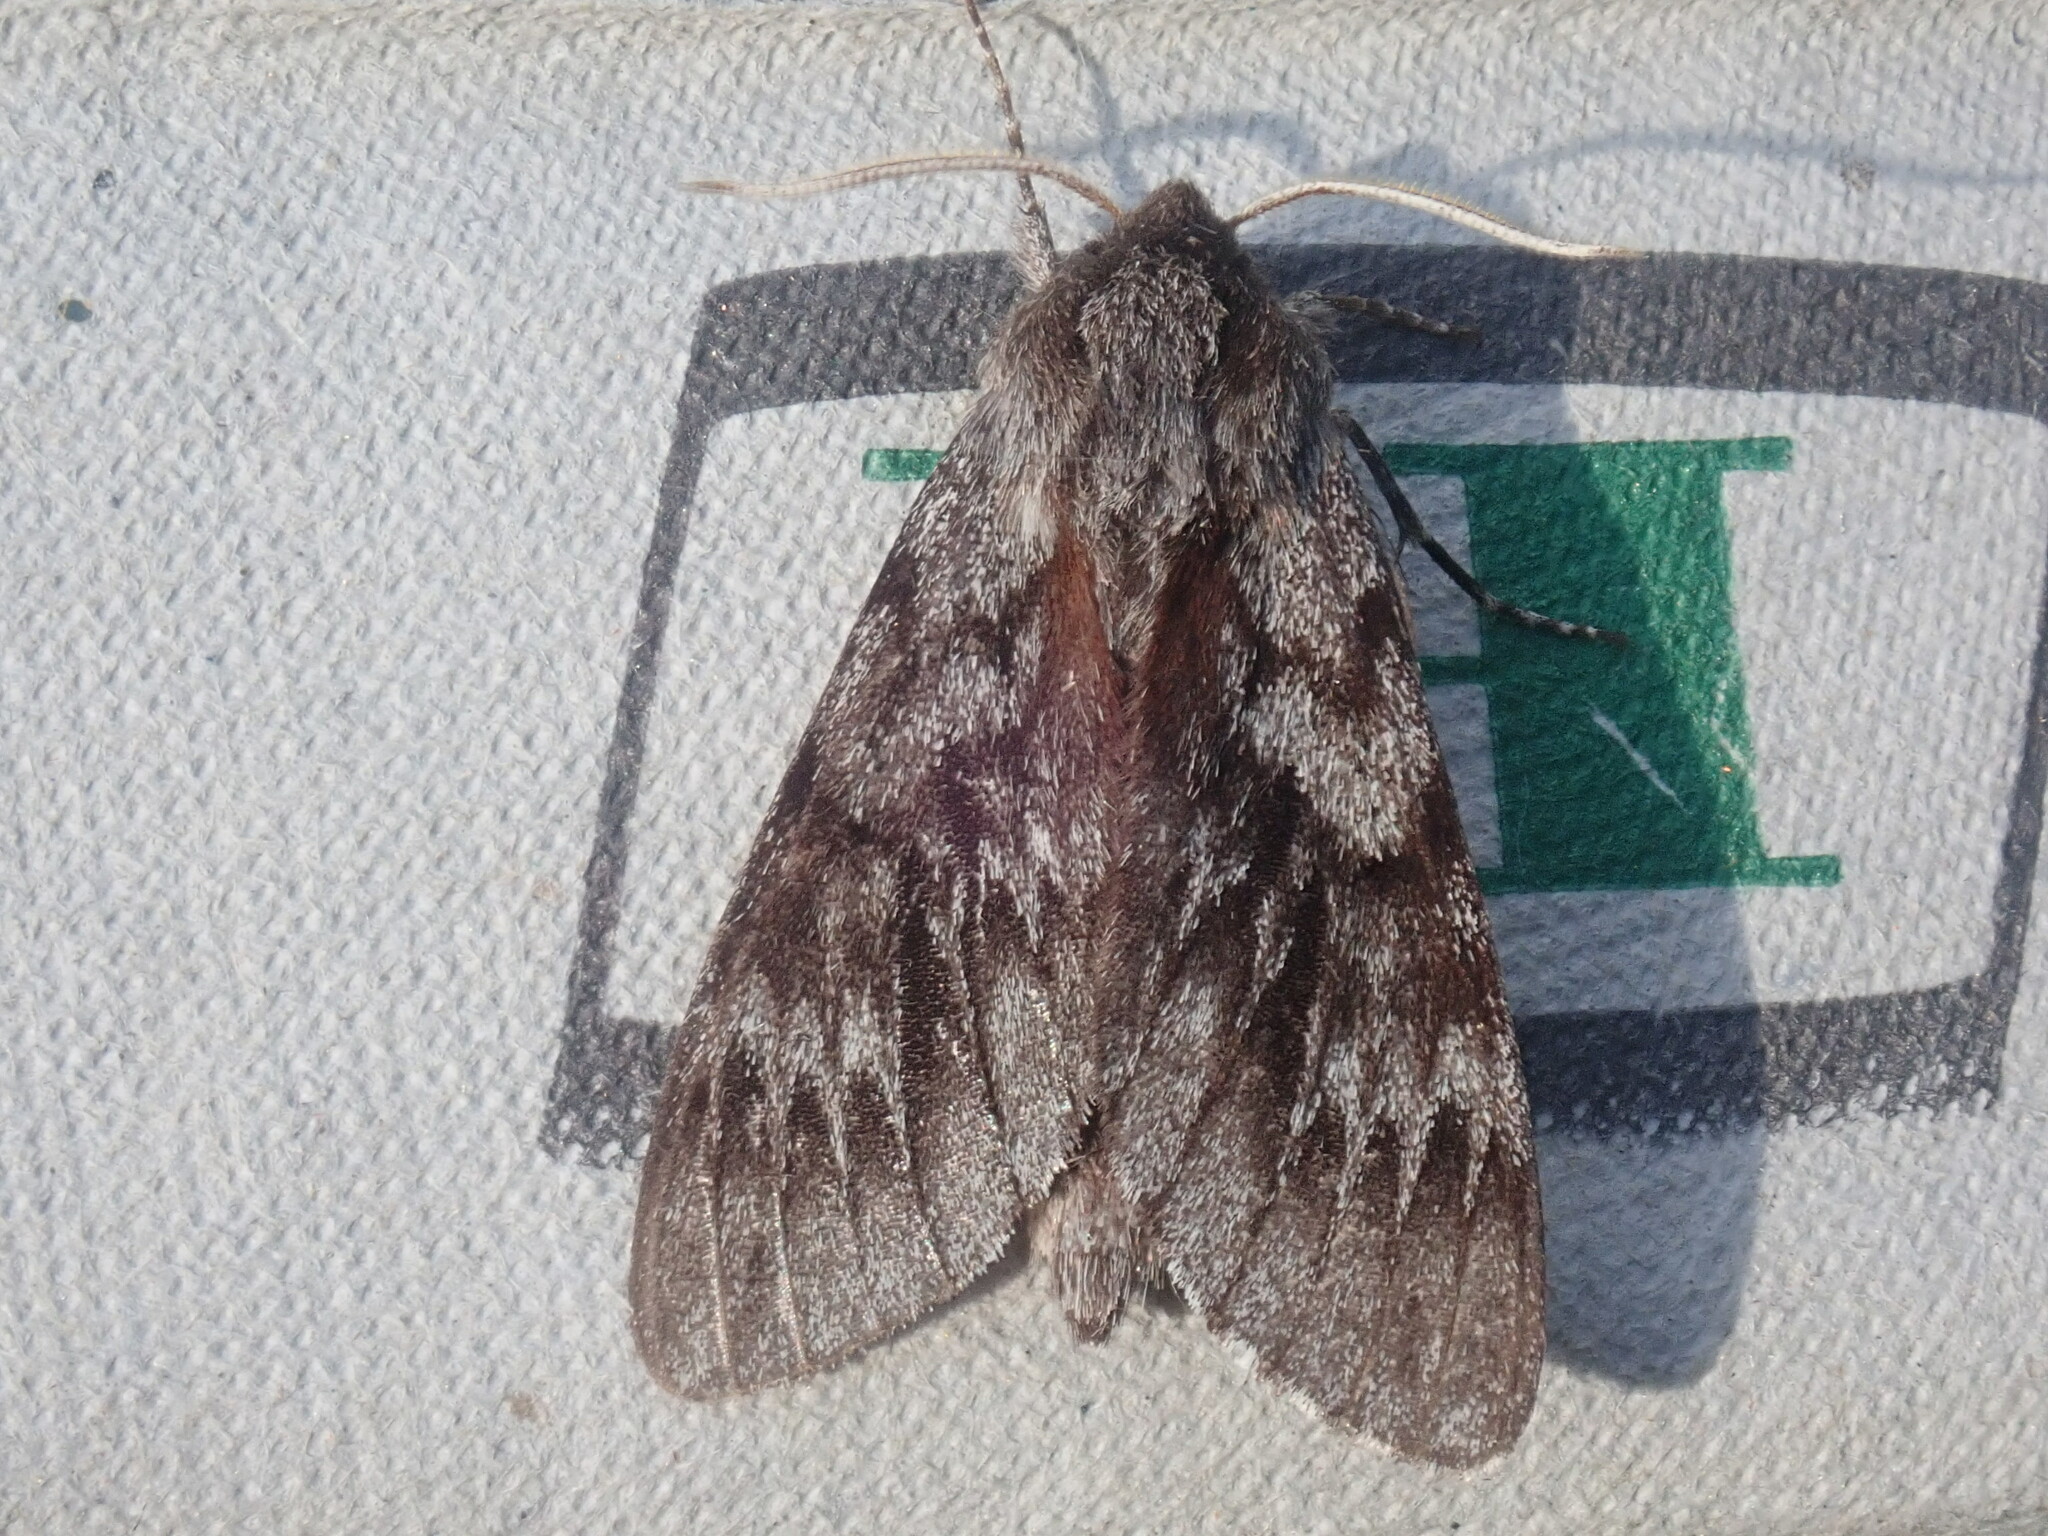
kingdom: Animalia
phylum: Arthropoda
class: Insecta
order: Lepidoptera
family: Sphingidae
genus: Lapara
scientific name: Lapara bombycoides
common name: Northern pine sphinx
